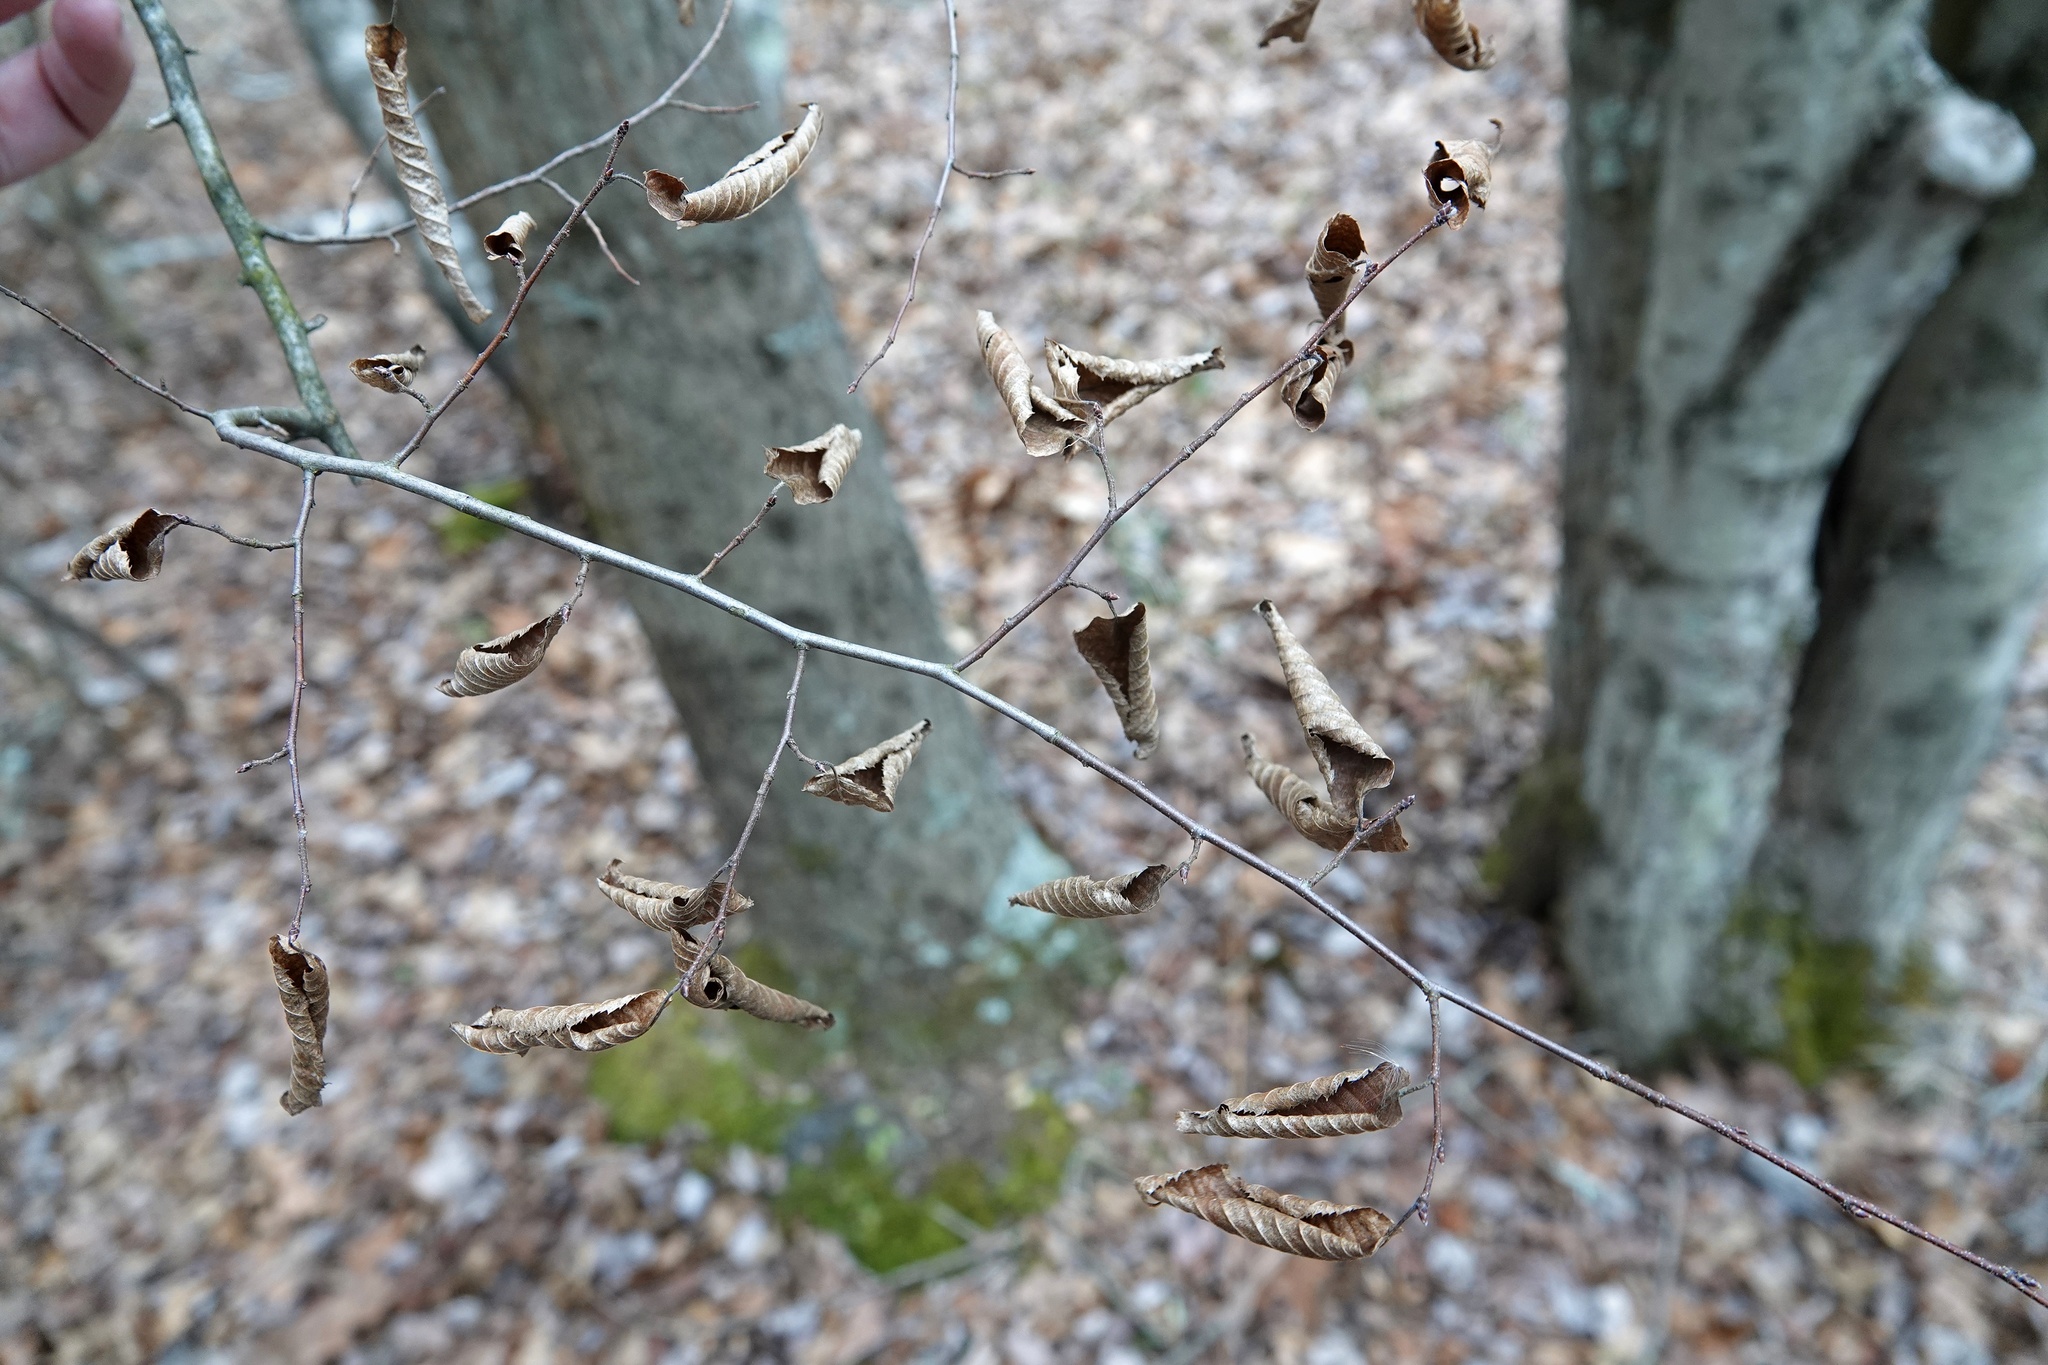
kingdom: Plantae
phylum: Tracheophyta
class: Magnoliopsida
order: Fagales
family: Betulaceae
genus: Carpinus
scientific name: Carpinus caroliniana
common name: American hornbeam
